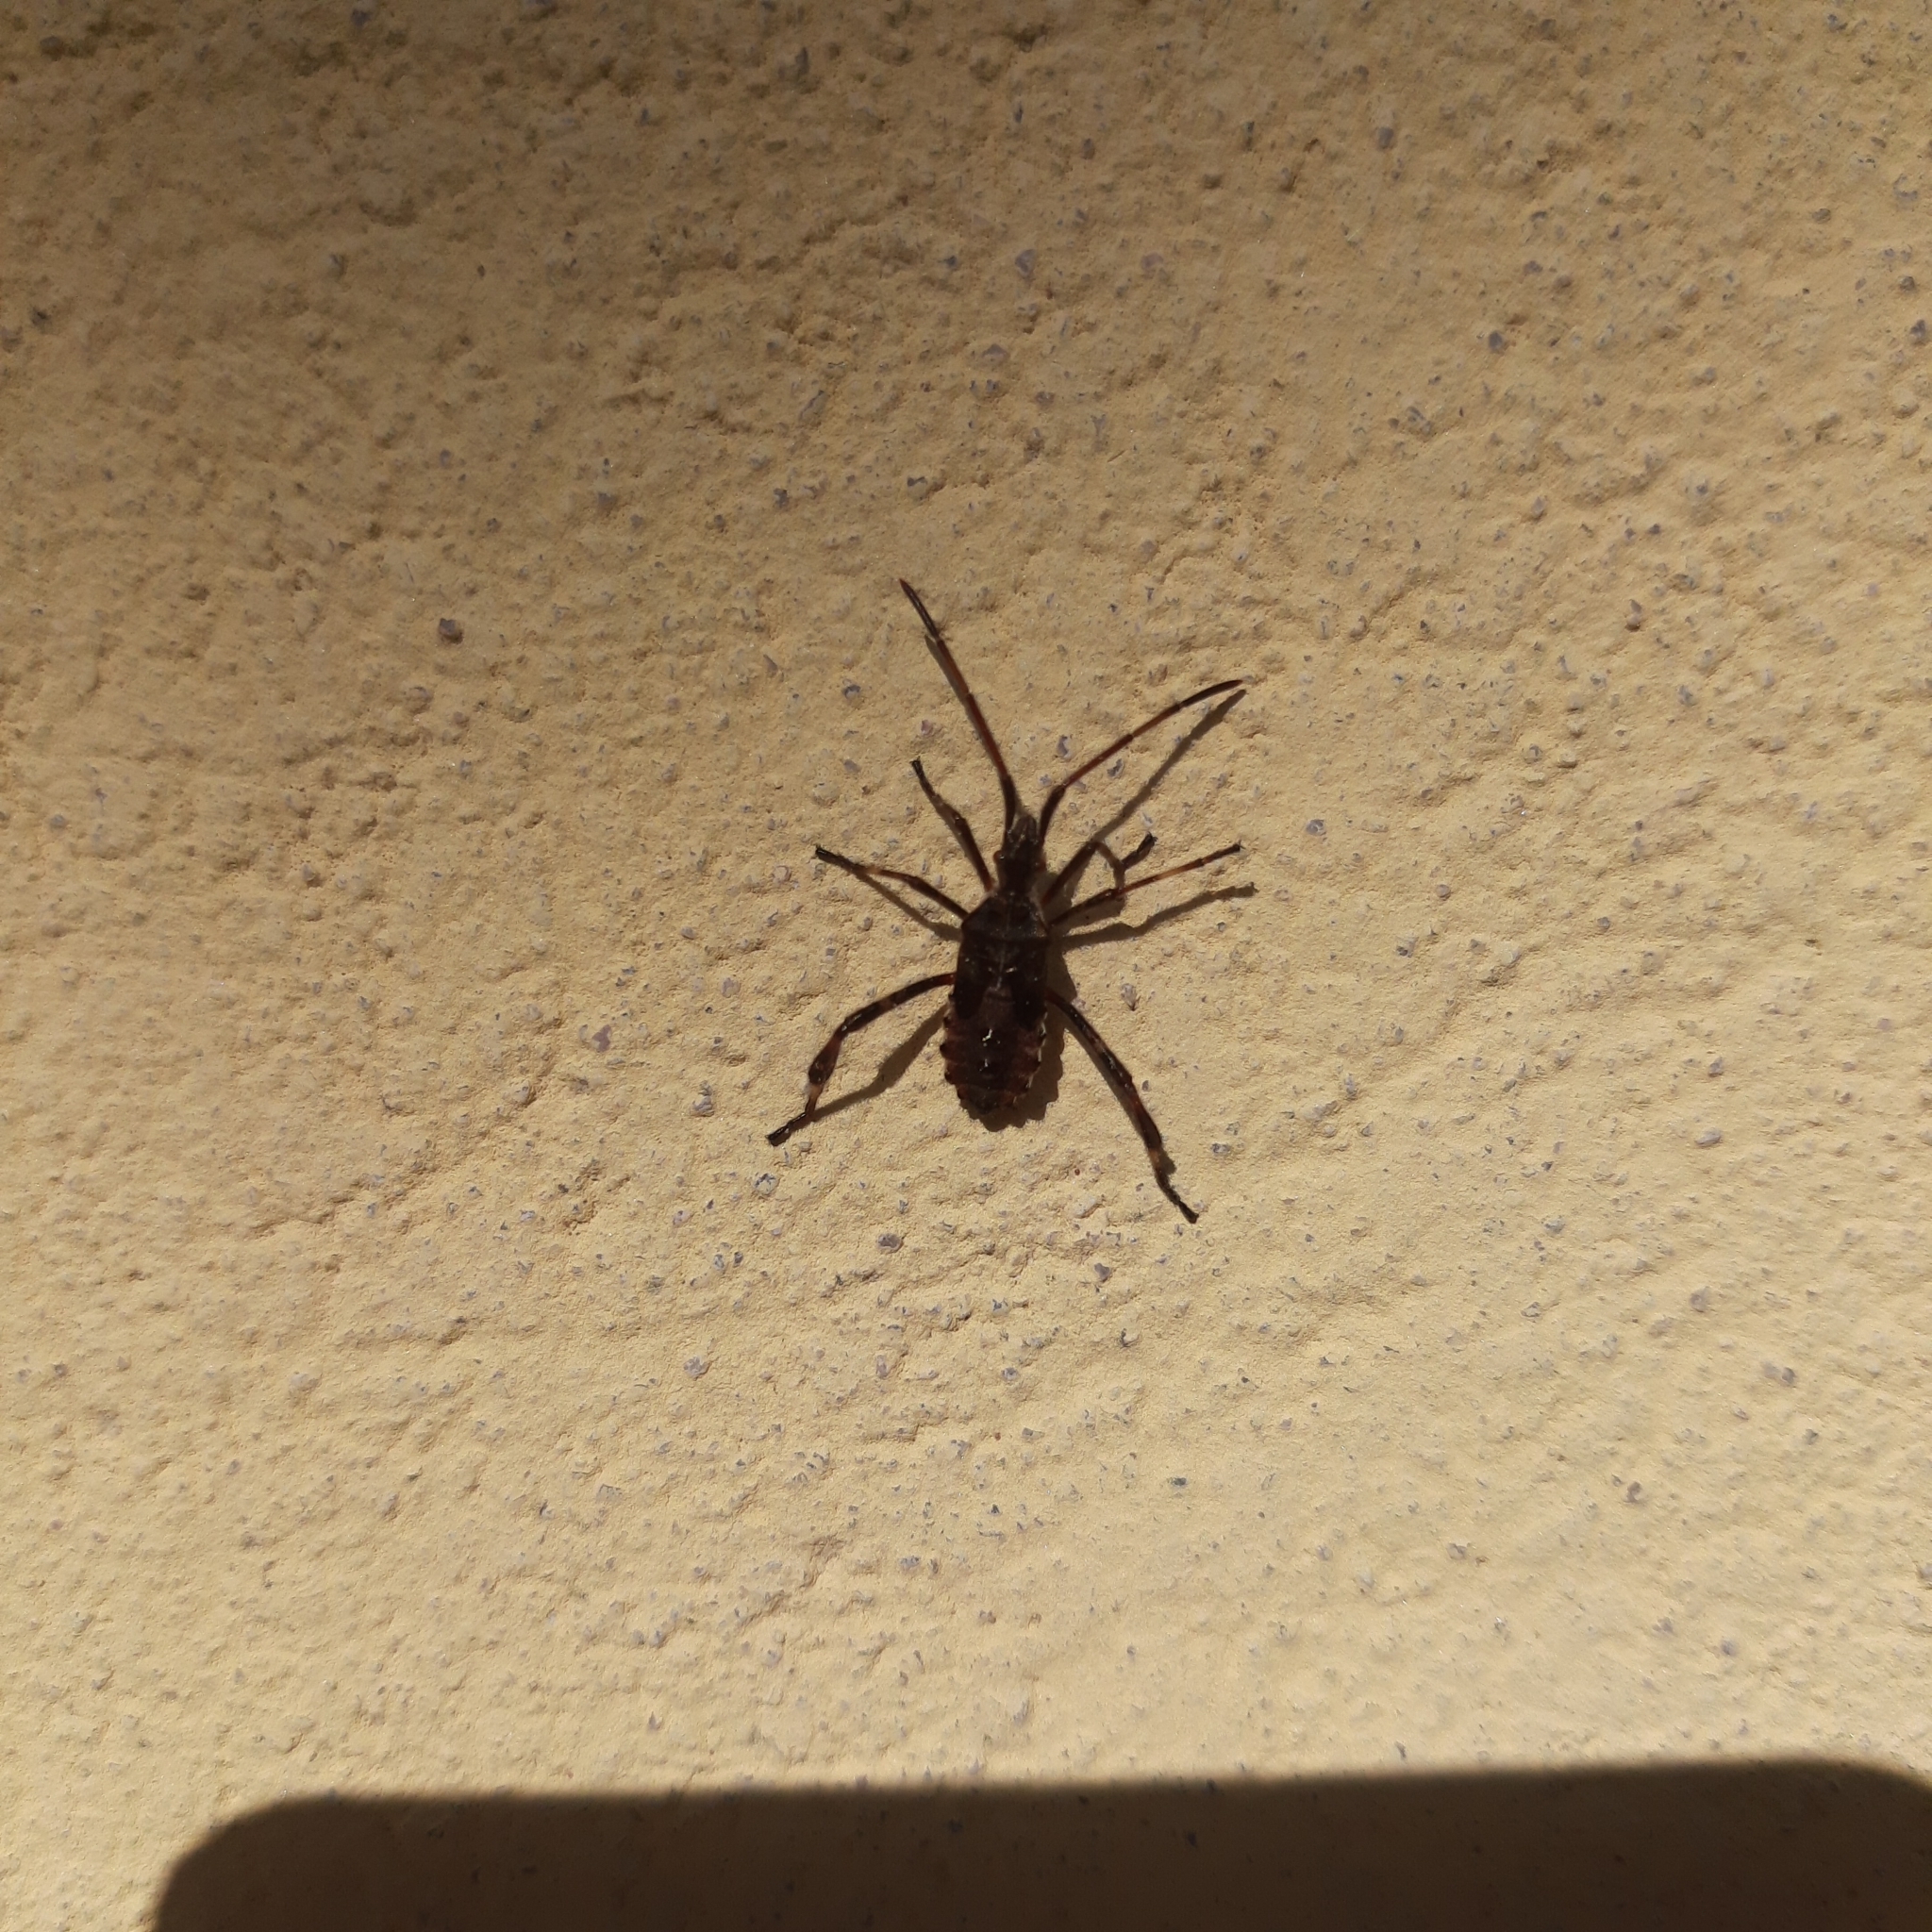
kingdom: Animalia
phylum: Arthropoda
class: Insecta
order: Hemiptera
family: Coreidae
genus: Leptoglossus
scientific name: Leptoglossus occidentalis
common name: Western conifer-seed bug
